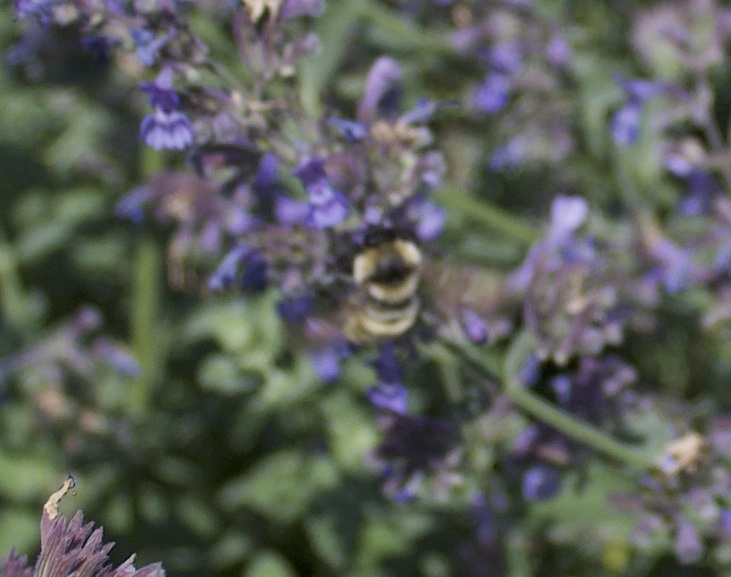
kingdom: Animalia
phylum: Arthropoda
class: Insecta
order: Hymenoptera
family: Apidae
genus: Bombus
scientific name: Bombus
